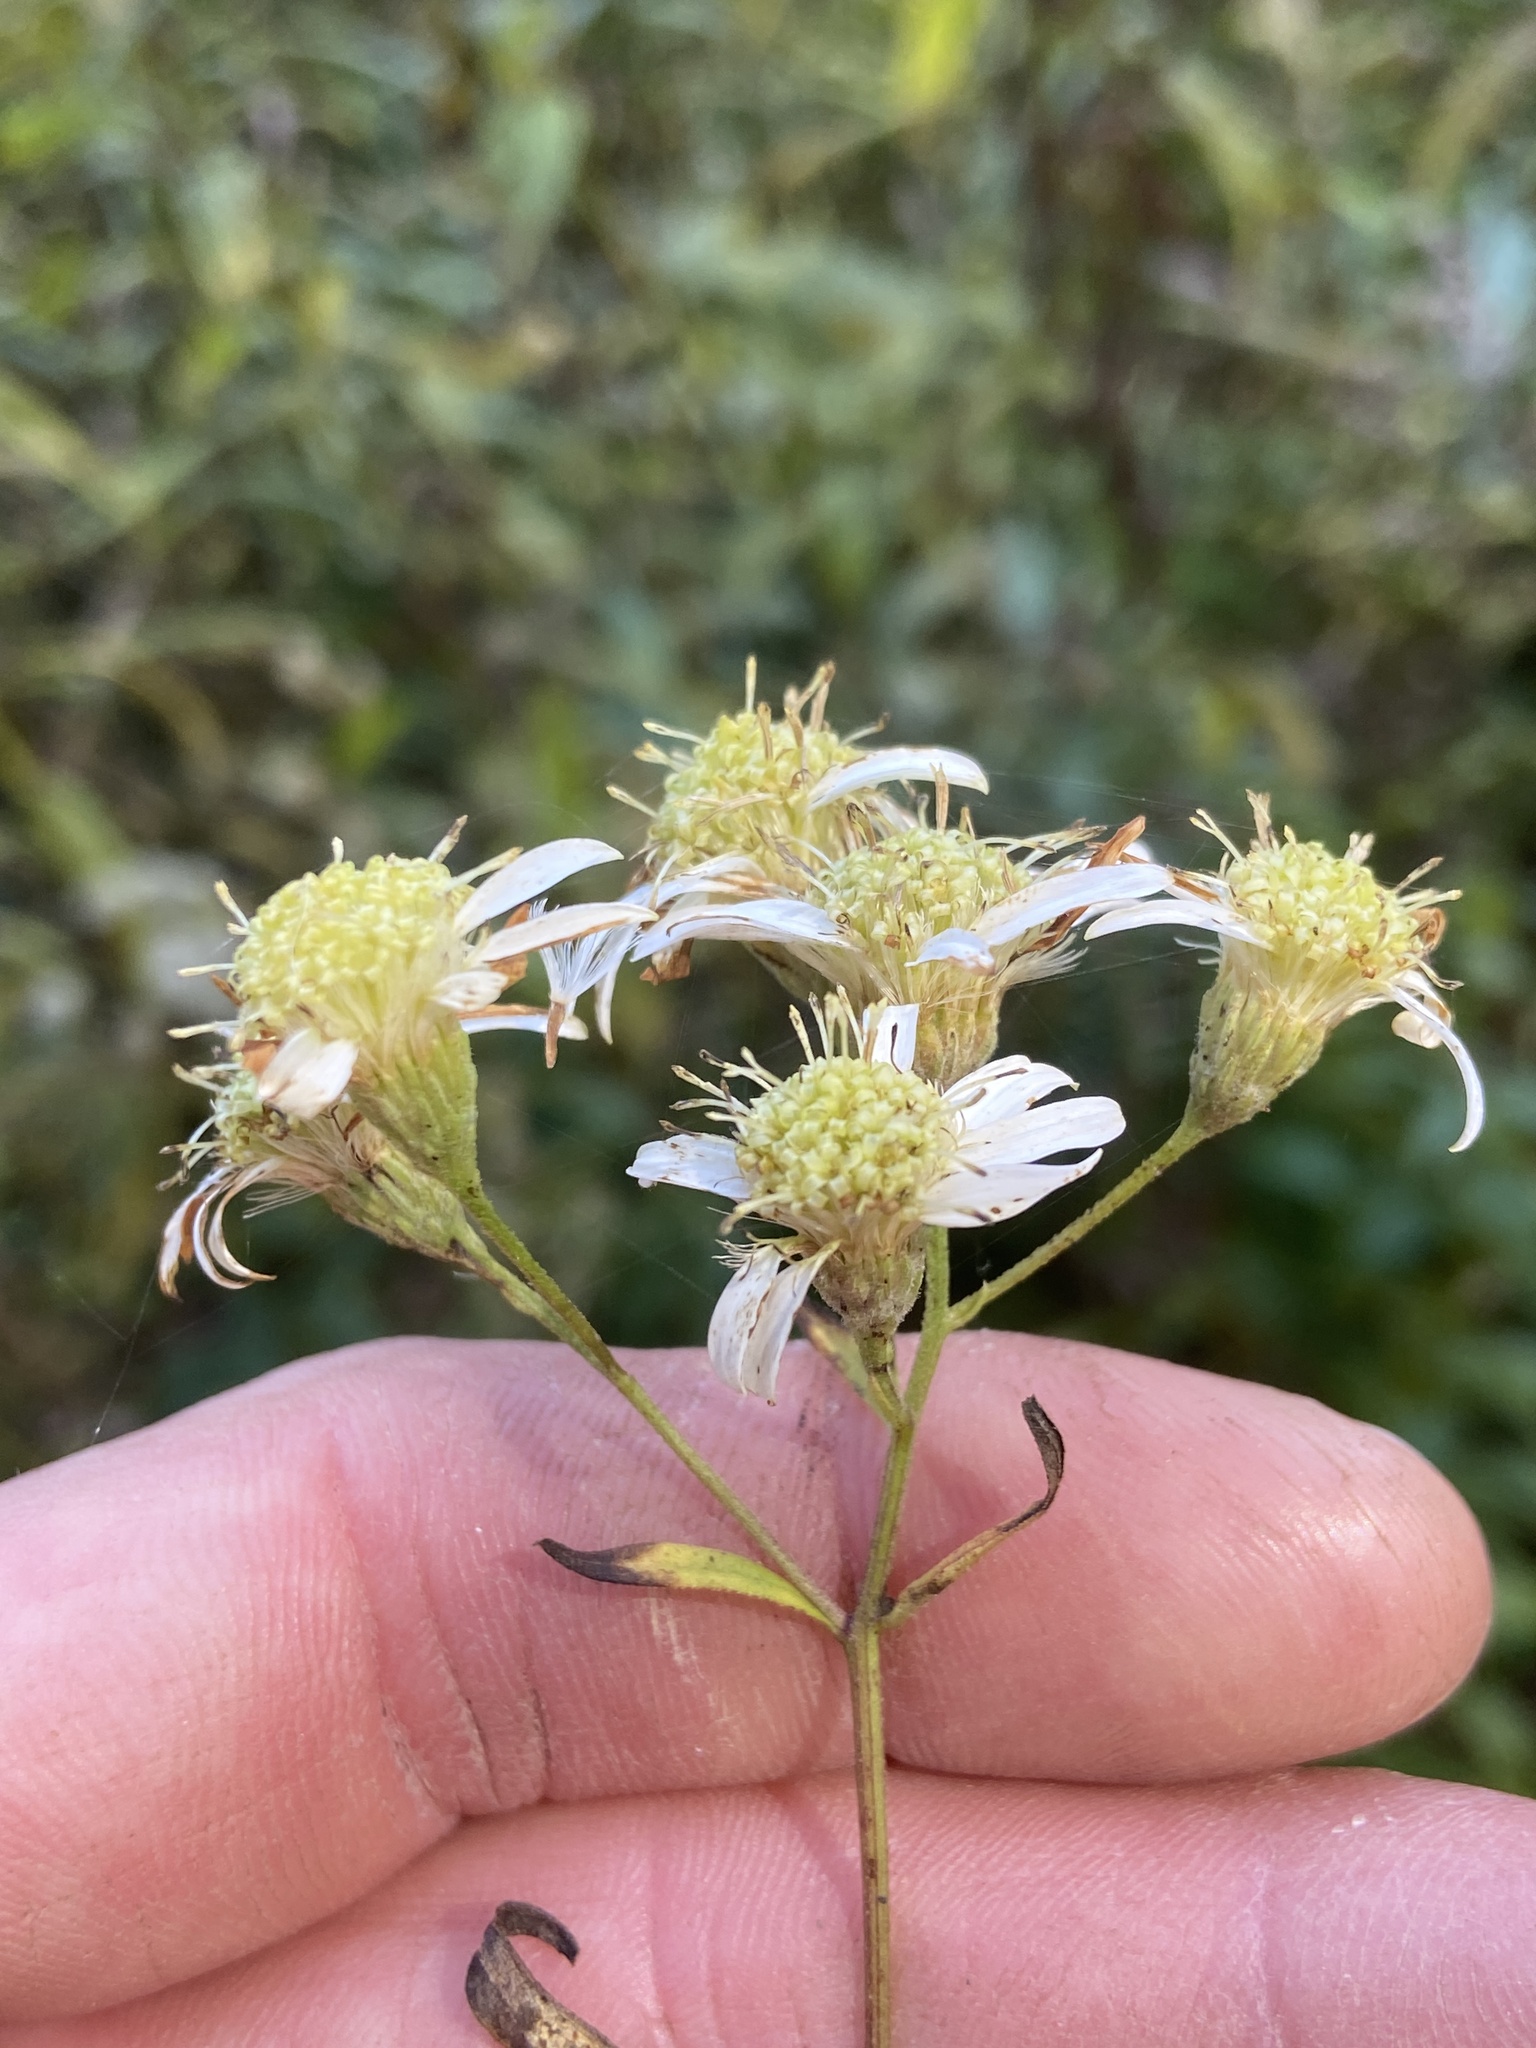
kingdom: Plantae
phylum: Tracheophyta
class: Magnoliopsida
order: Asterales
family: Asteraceae
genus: Doellingeria
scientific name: Doellingeria umbellata
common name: Flat-top white aster
